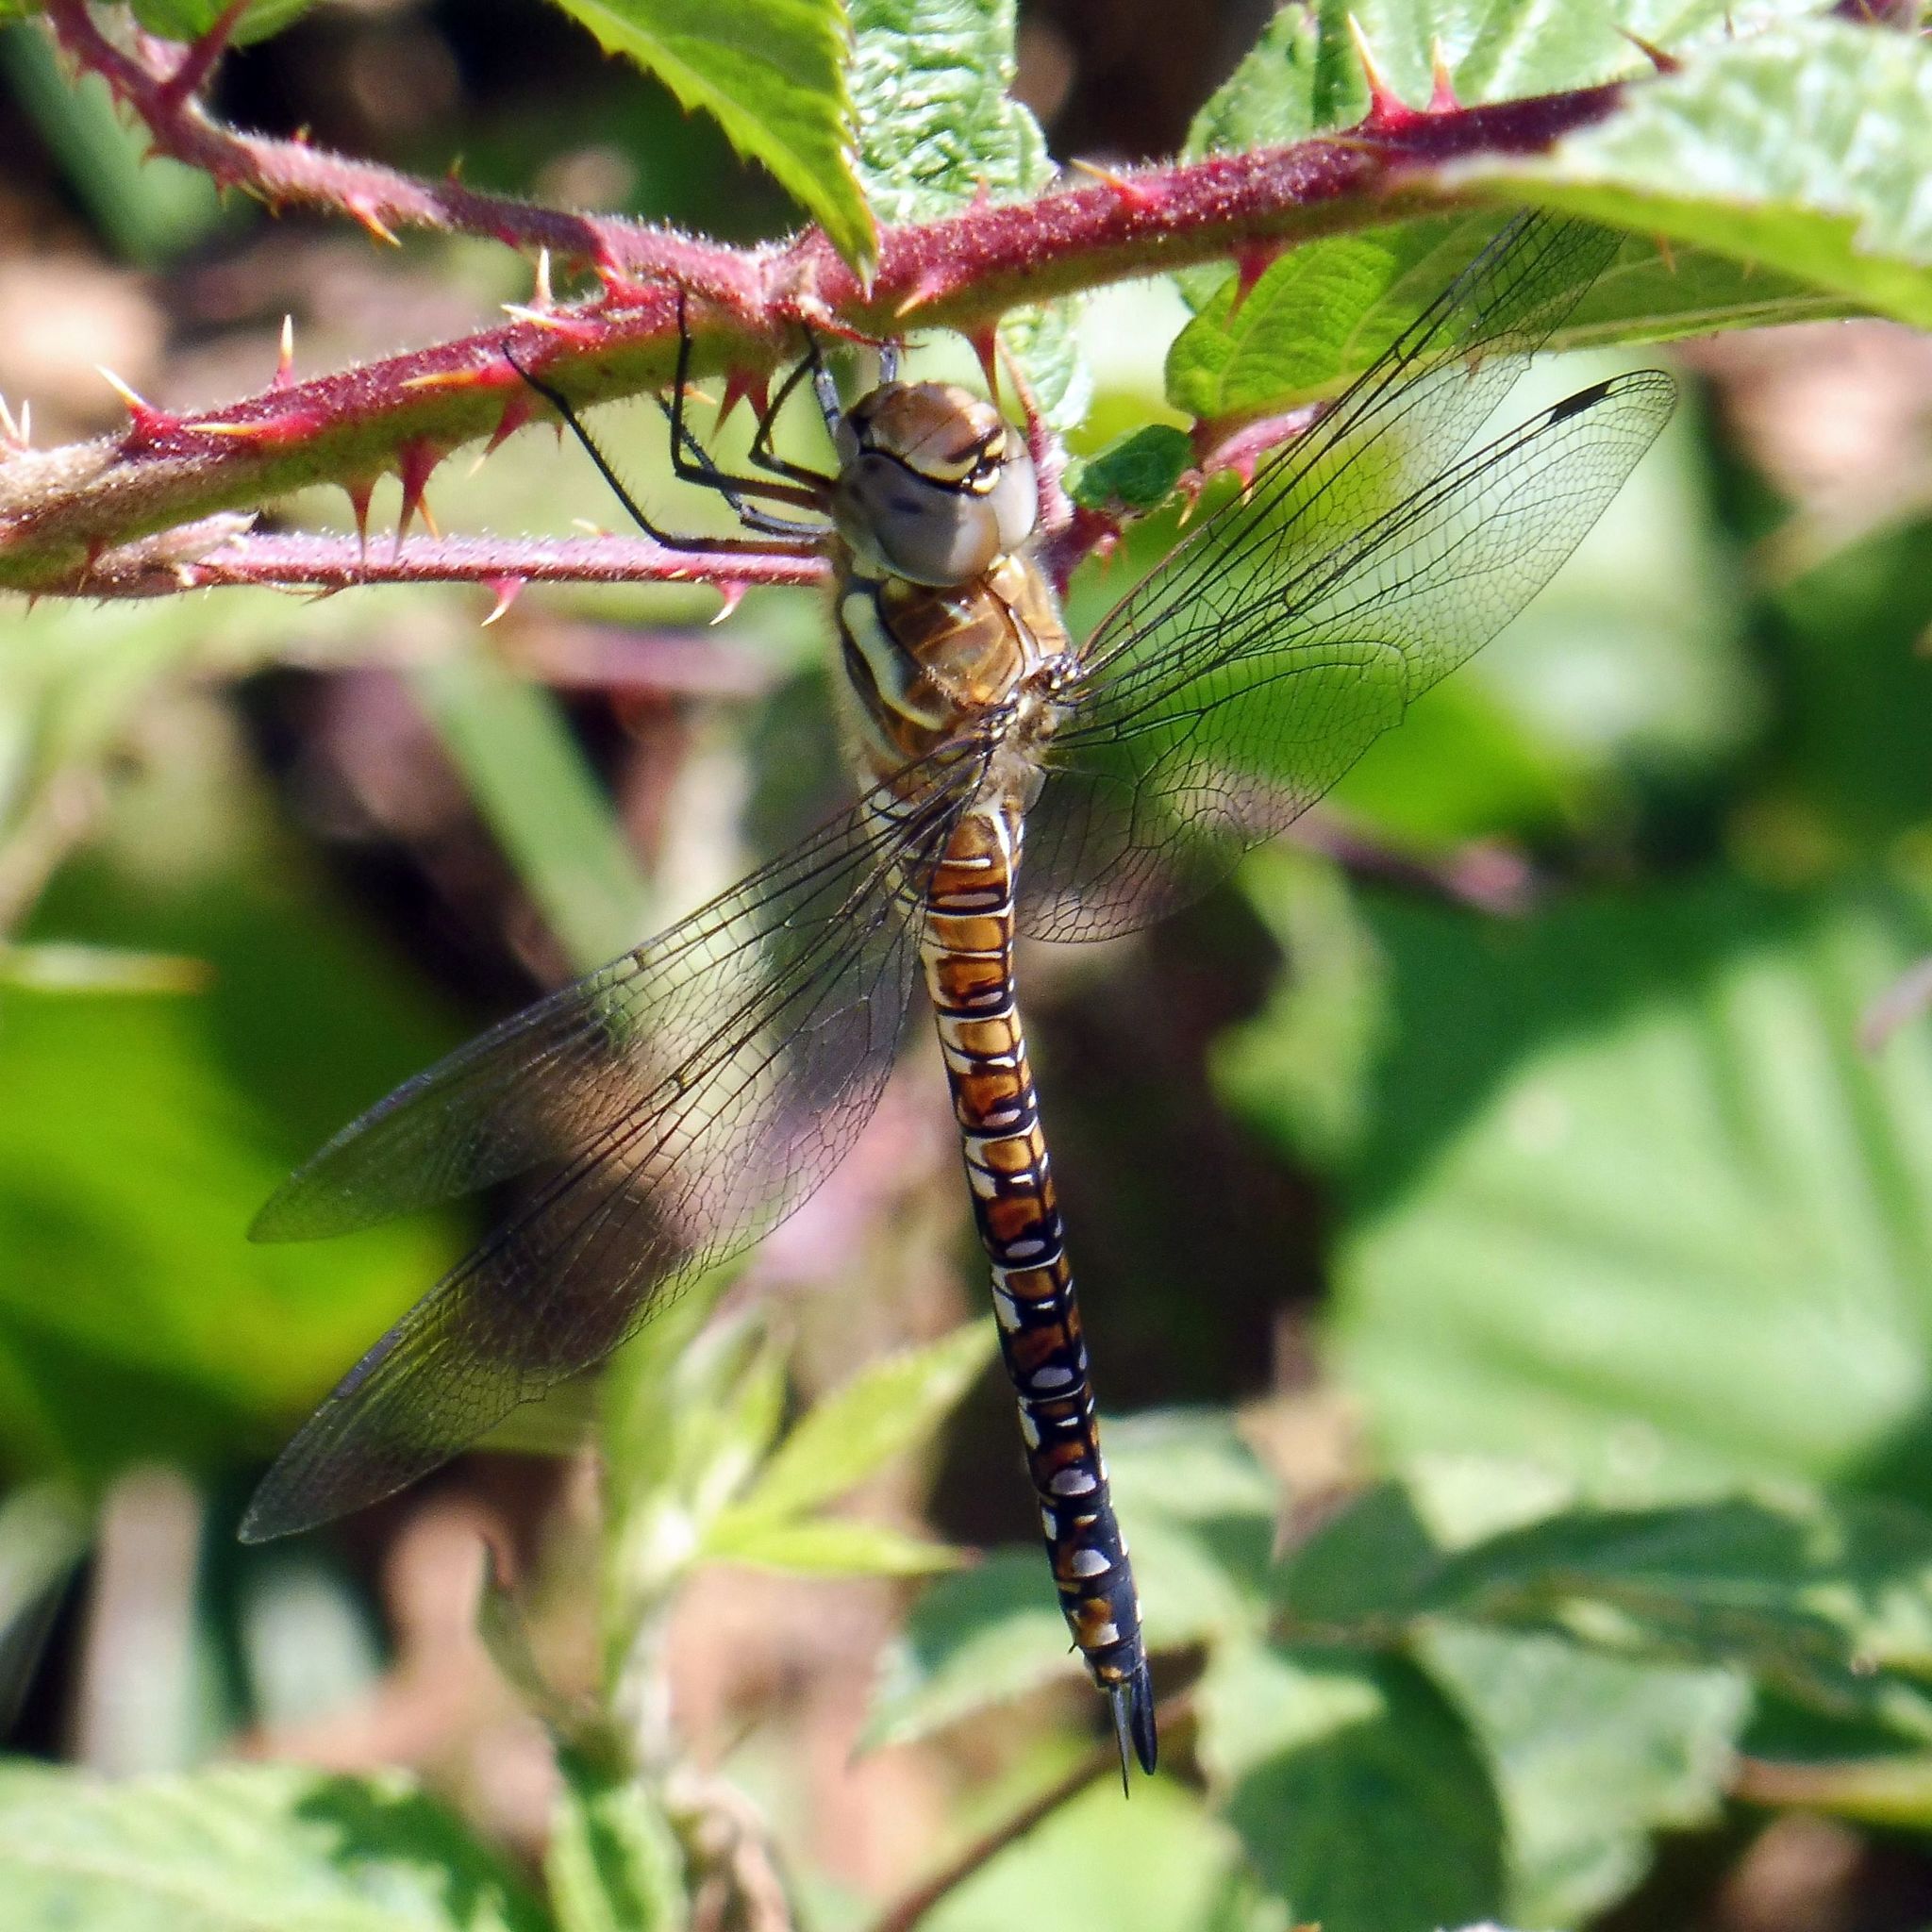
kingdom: Animalia
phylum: Arthropoda
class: Insecta
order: Odonata
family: Aeshnidae
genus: Aeshna
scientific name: Aeshna mixta
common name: Migrant hawker
